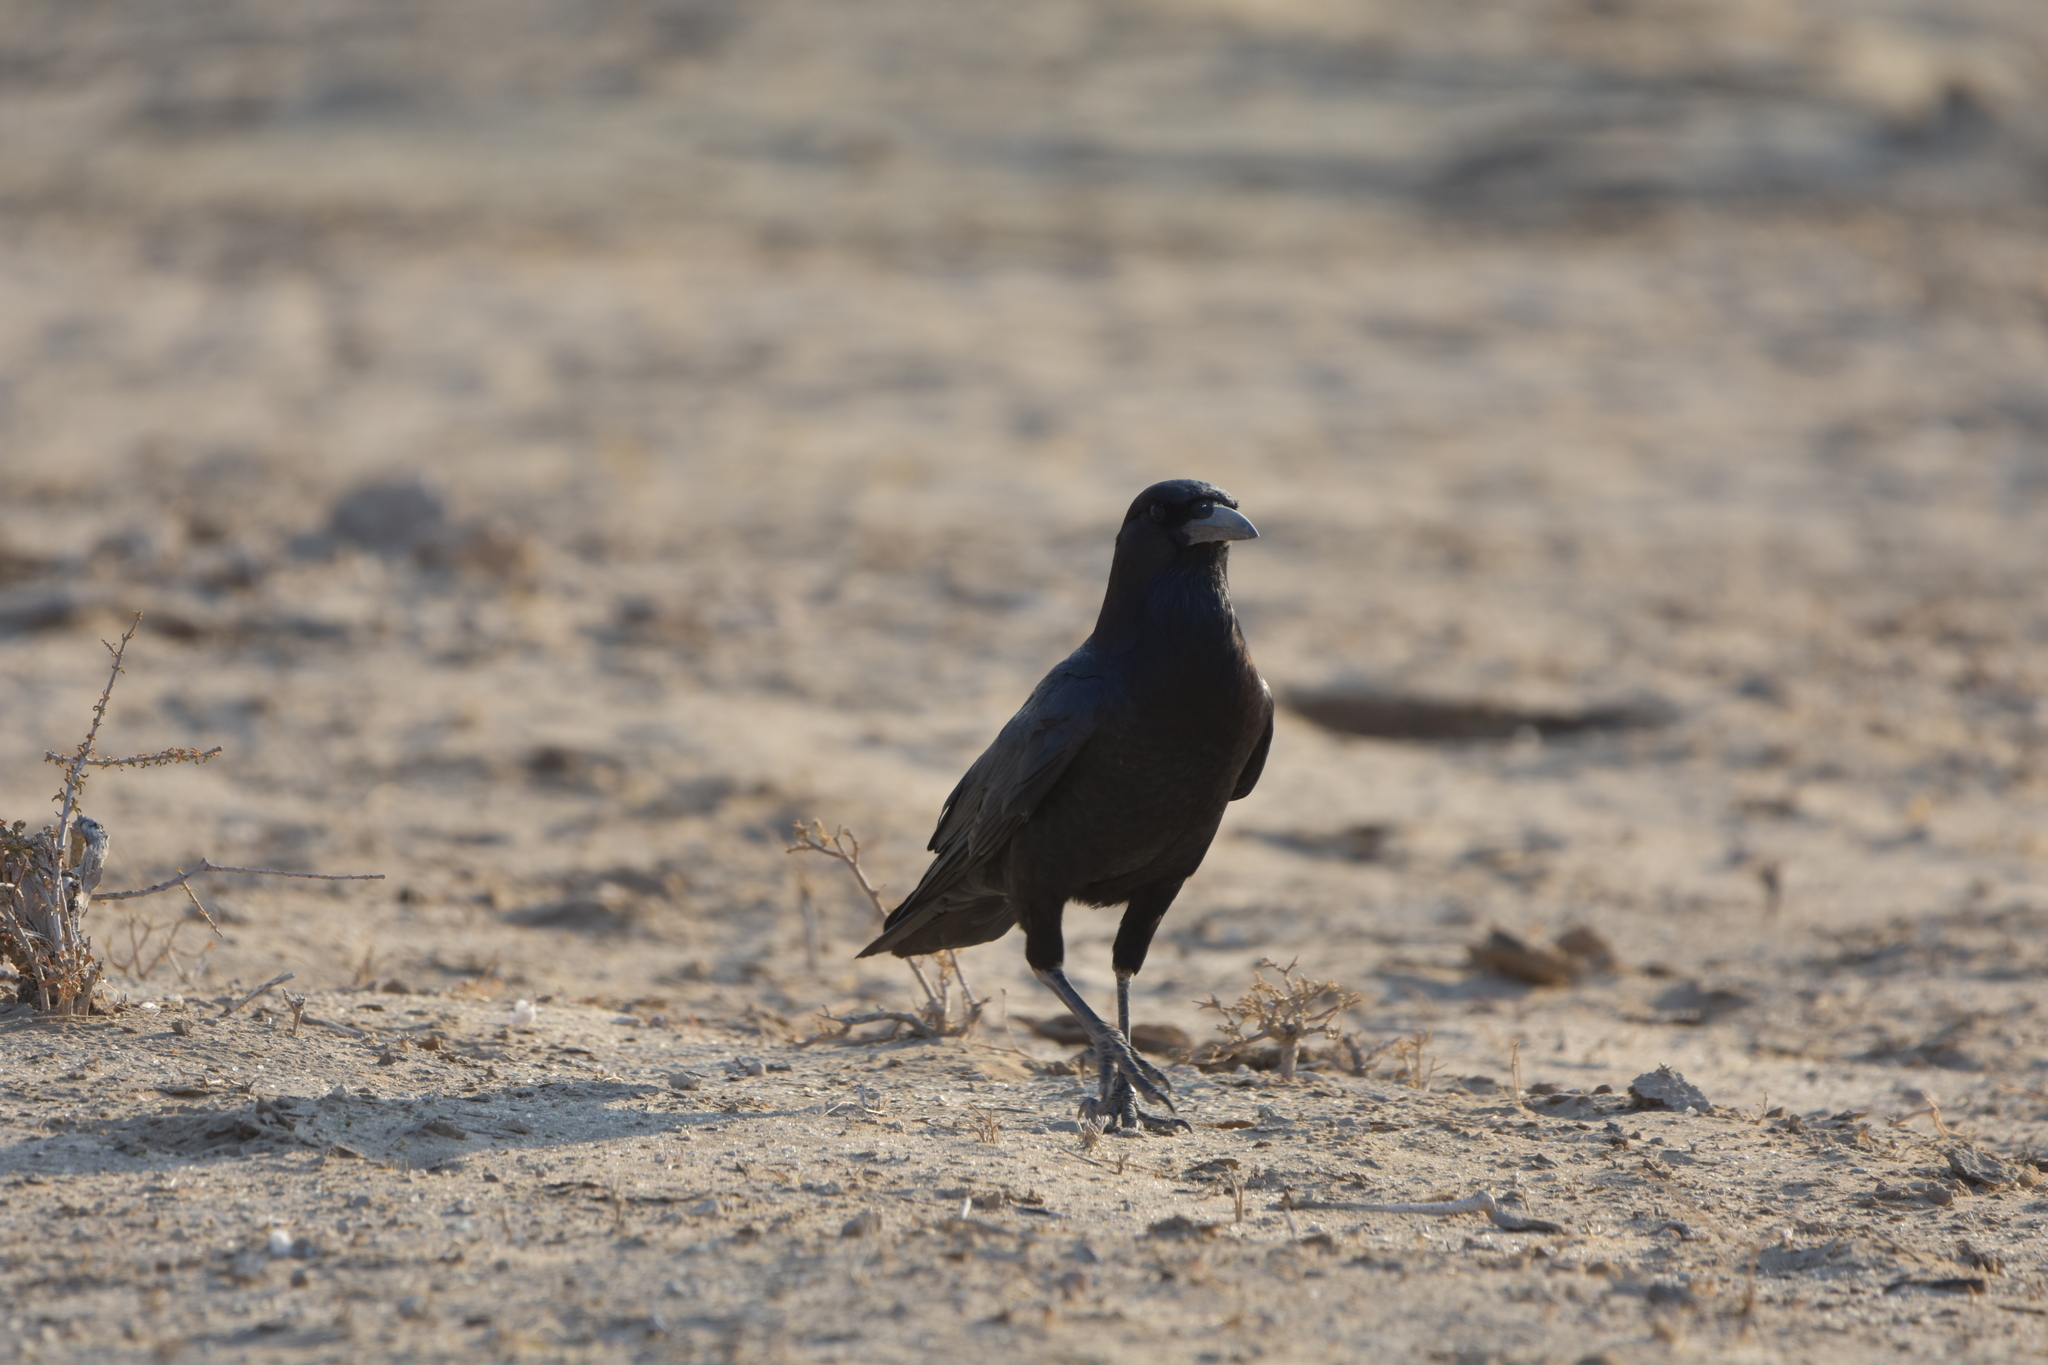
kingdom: Animalia
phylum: Chordata
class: Aves
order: Passeriformes
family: Corvidae
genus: Corvus
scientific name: Corvus capensis
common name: Cape crow
